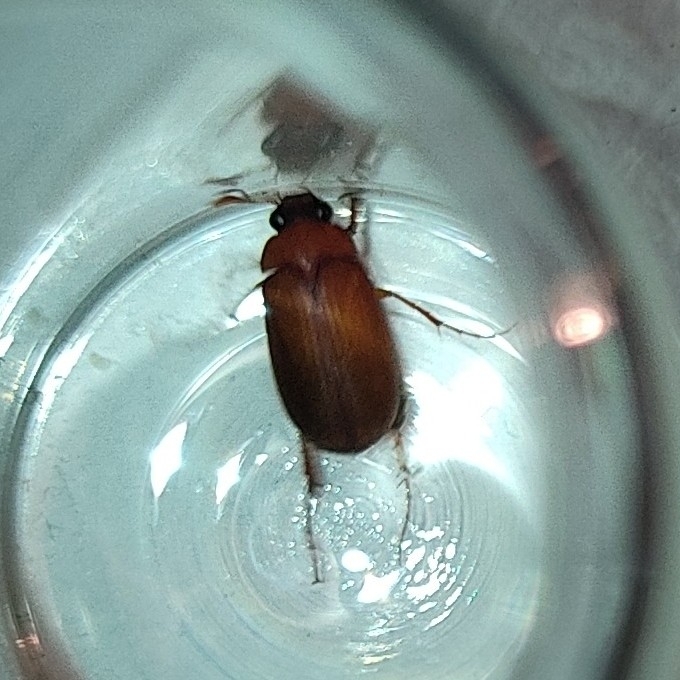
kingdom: Animalia
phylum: Arthropoda
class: Insecta
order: Coleoptera
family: Scarabaeidae
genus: Serica
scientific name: Serica brunnea
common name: Brown chafer
